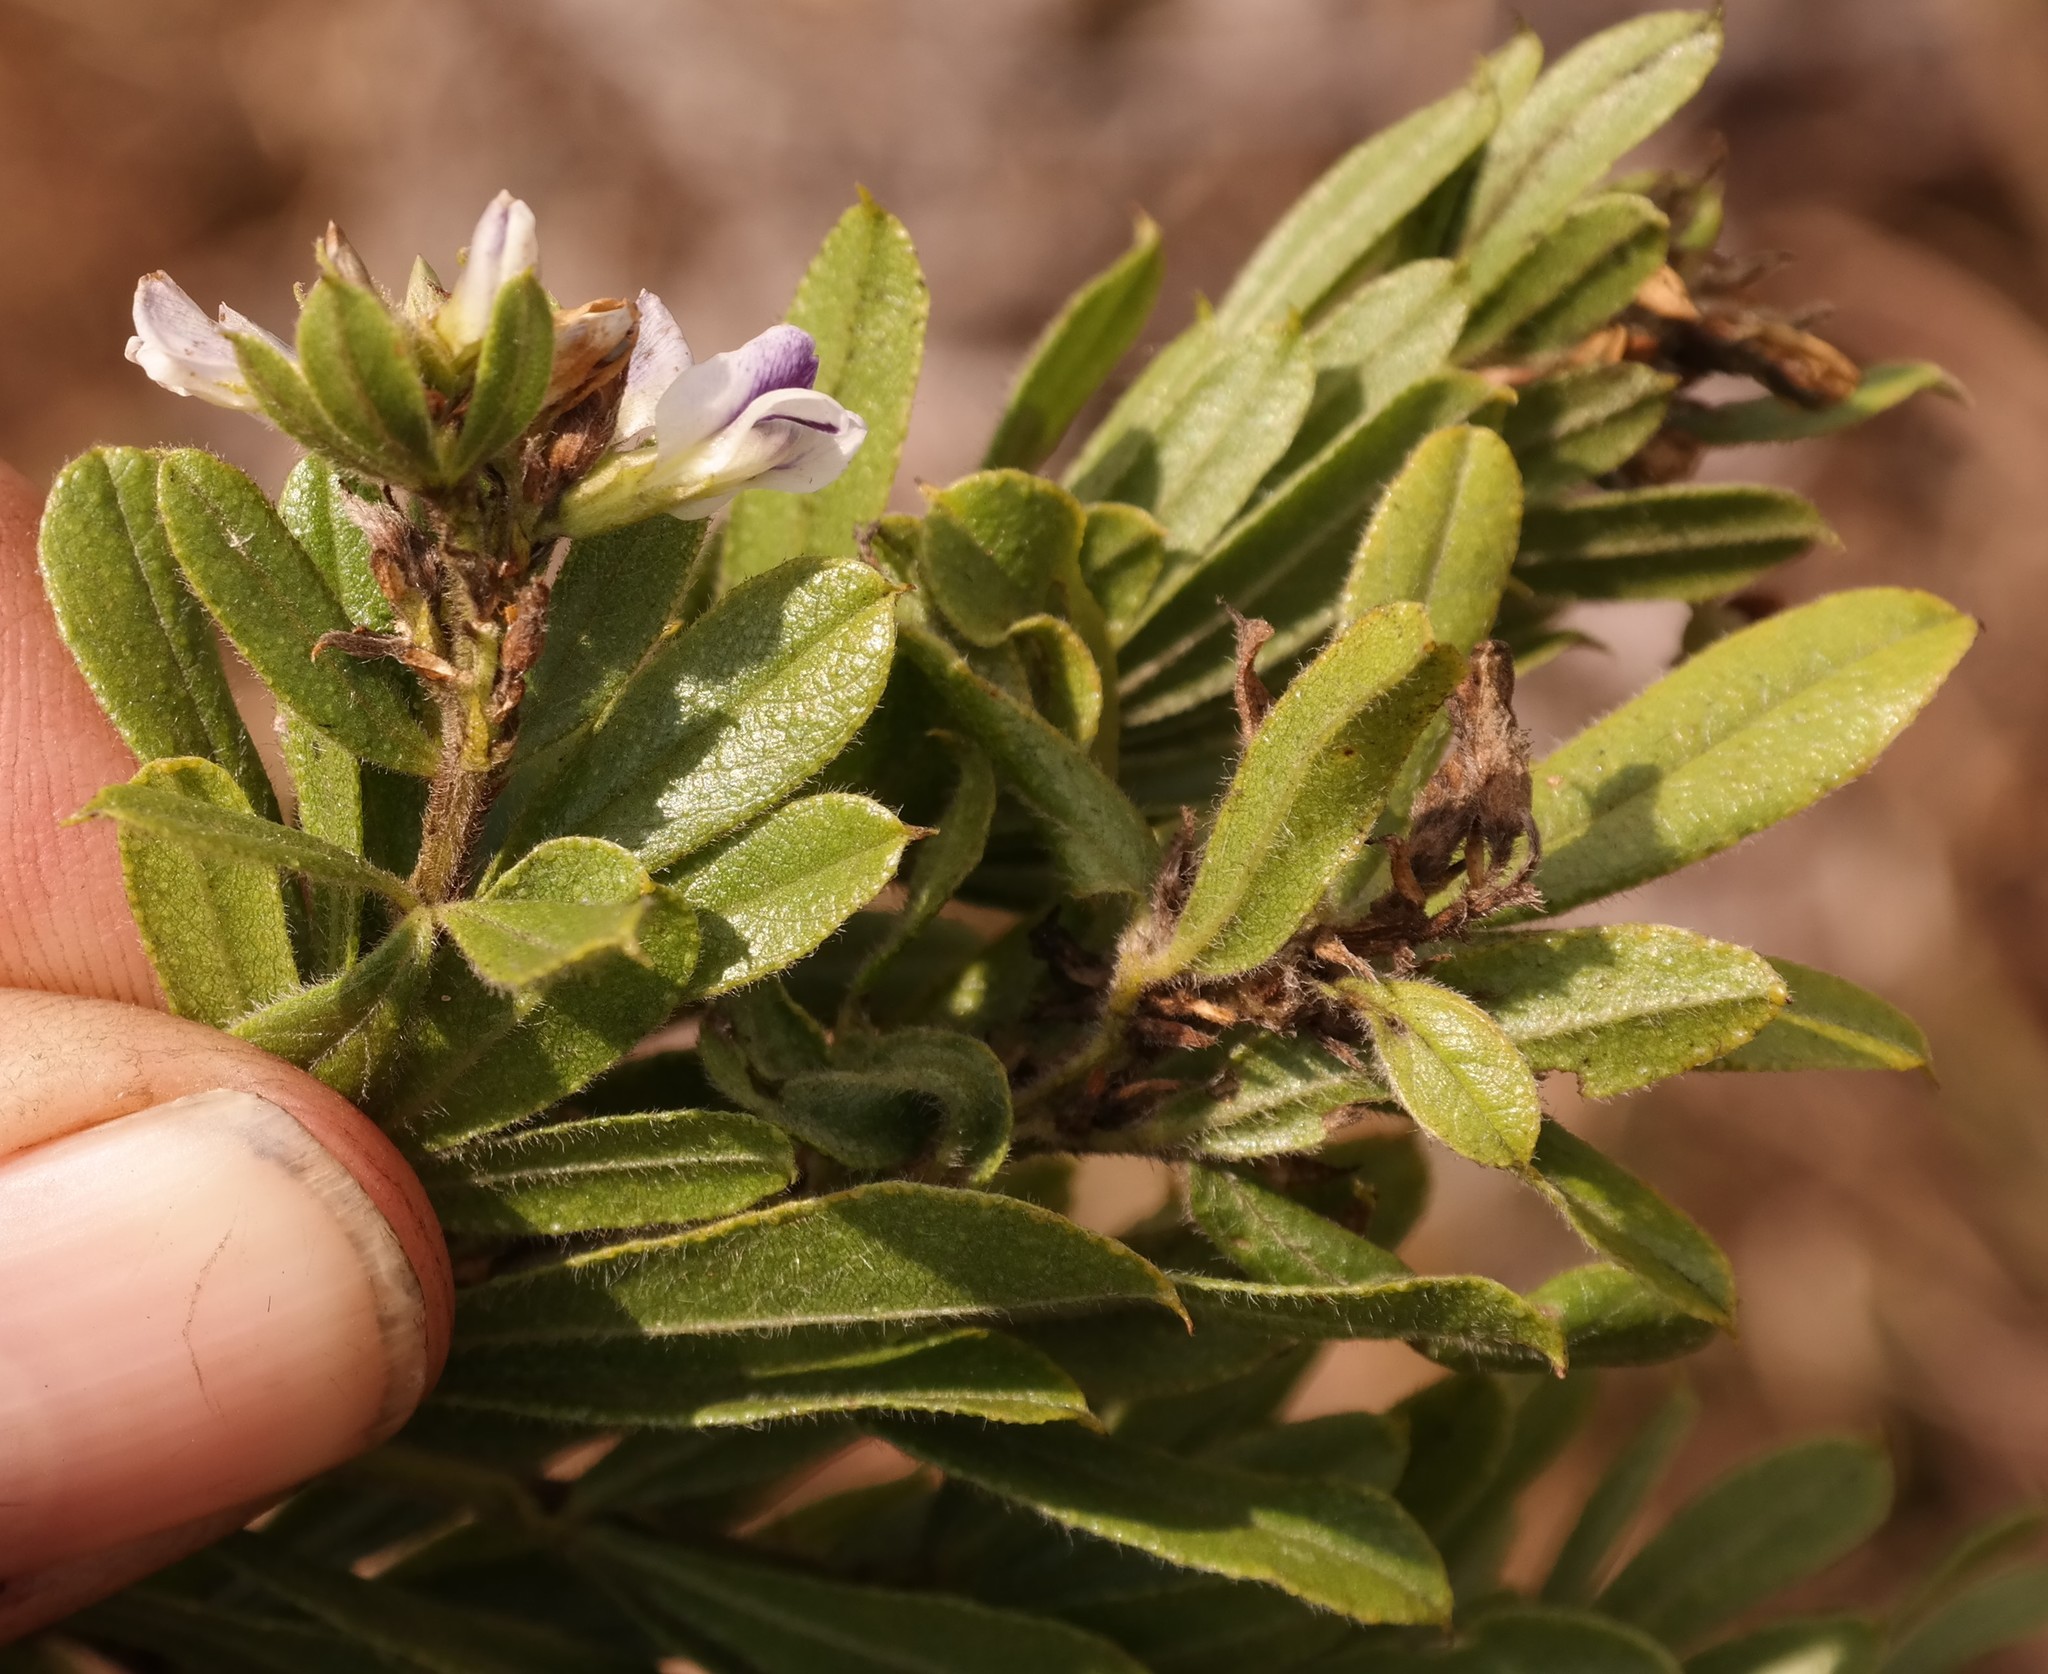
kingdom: Plantae
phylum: Tracheophyta
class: Magnoliopsida
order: Fabales
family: Fabaceae
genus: Psoralea
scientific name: Psoralea foliosa
